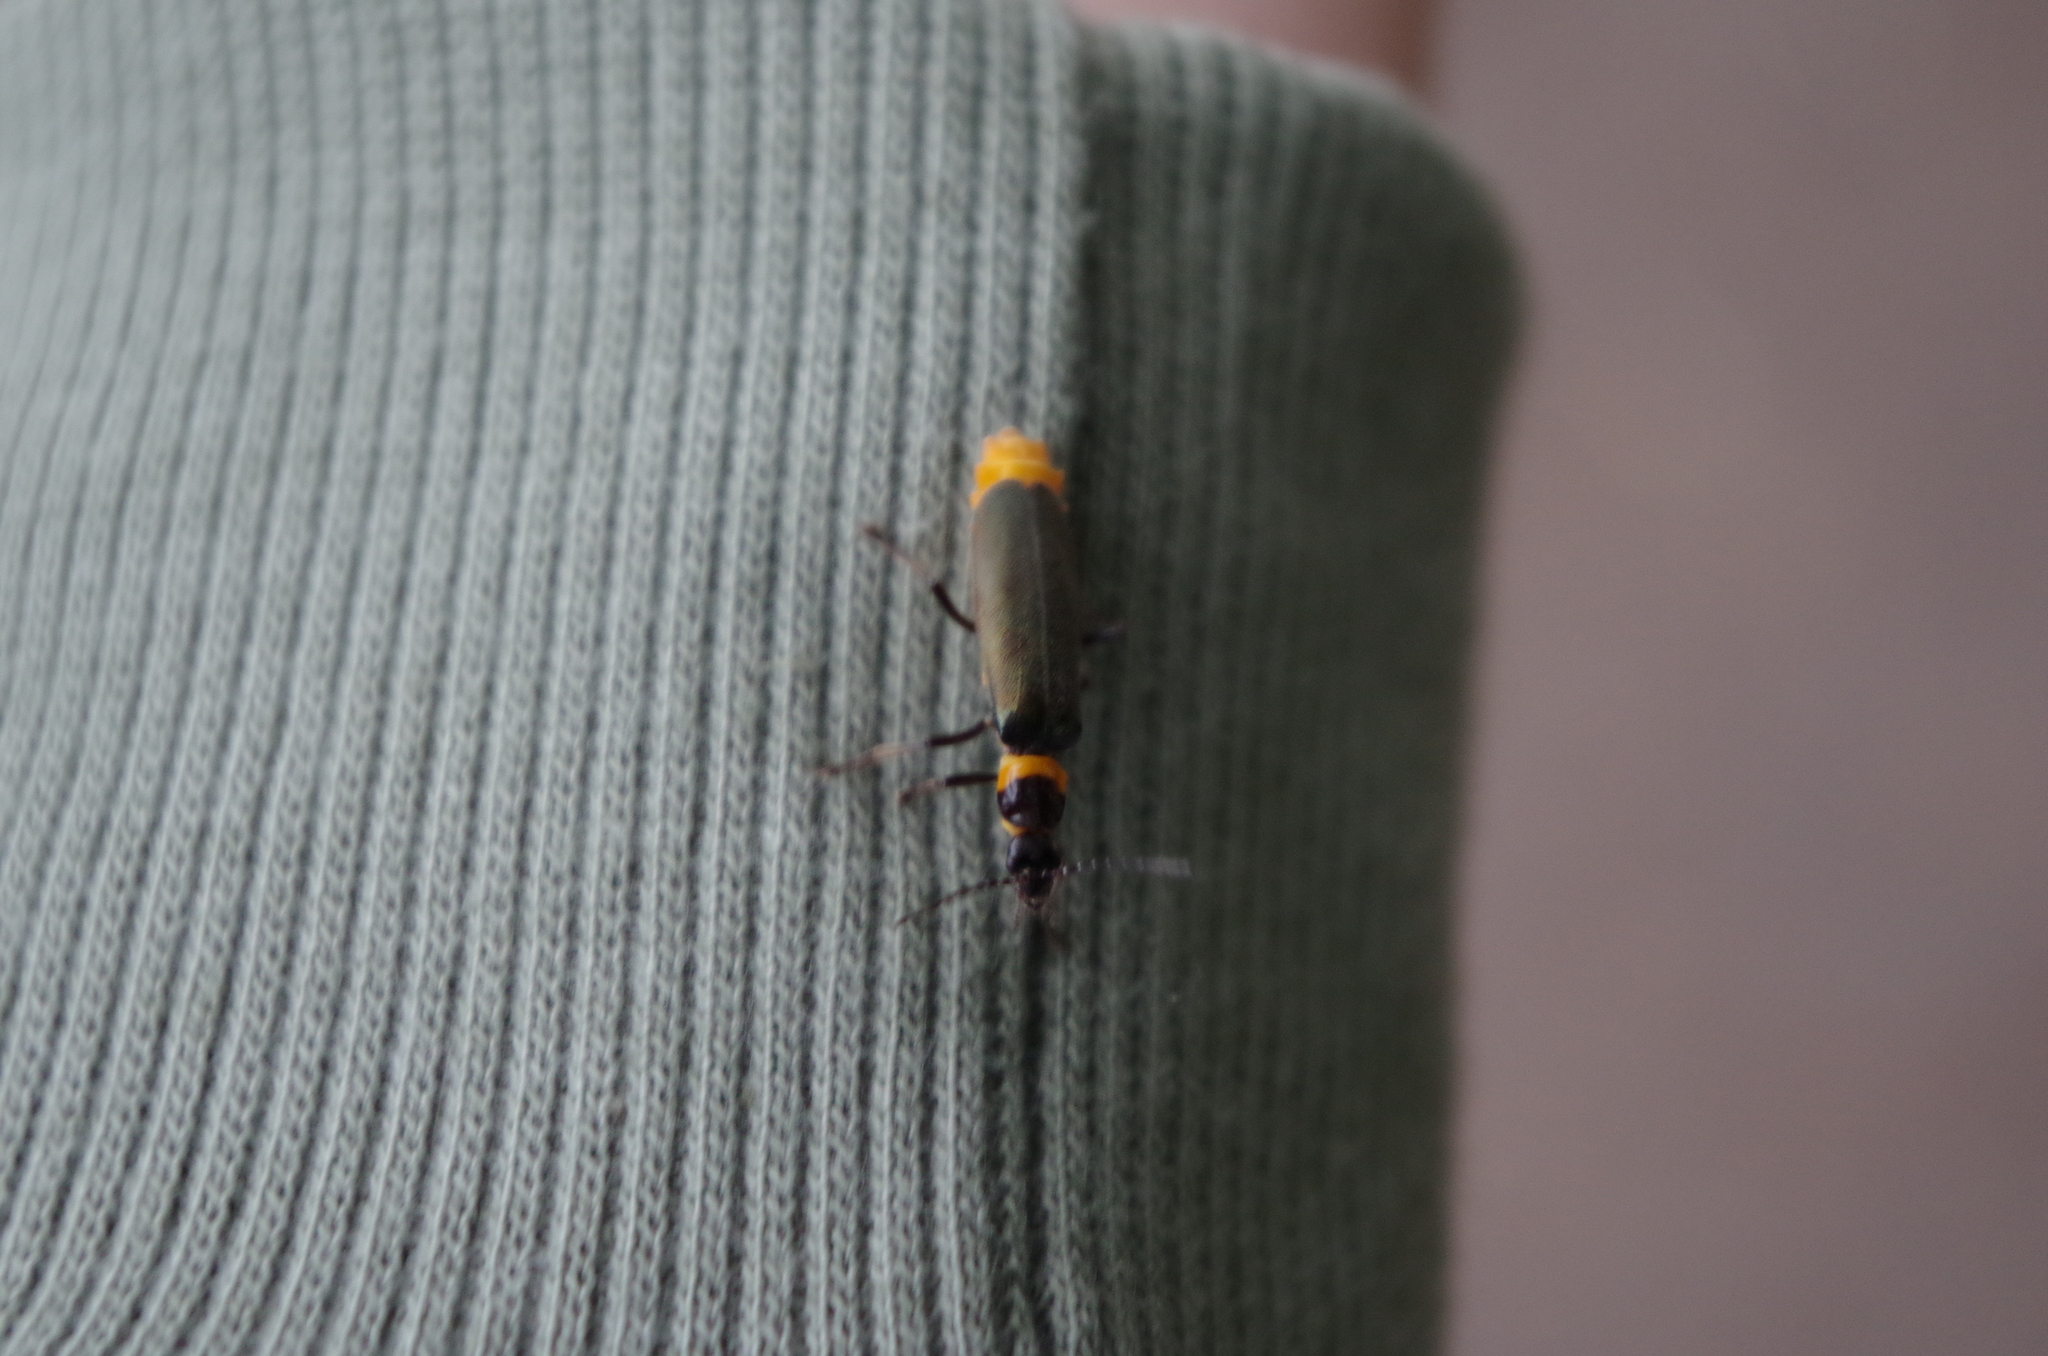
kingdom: Animalia
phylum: Arthropoda
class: Insecta
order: Coleoptera
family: Cantharidae
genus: Chauliognathus
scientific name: Chauliognathus
